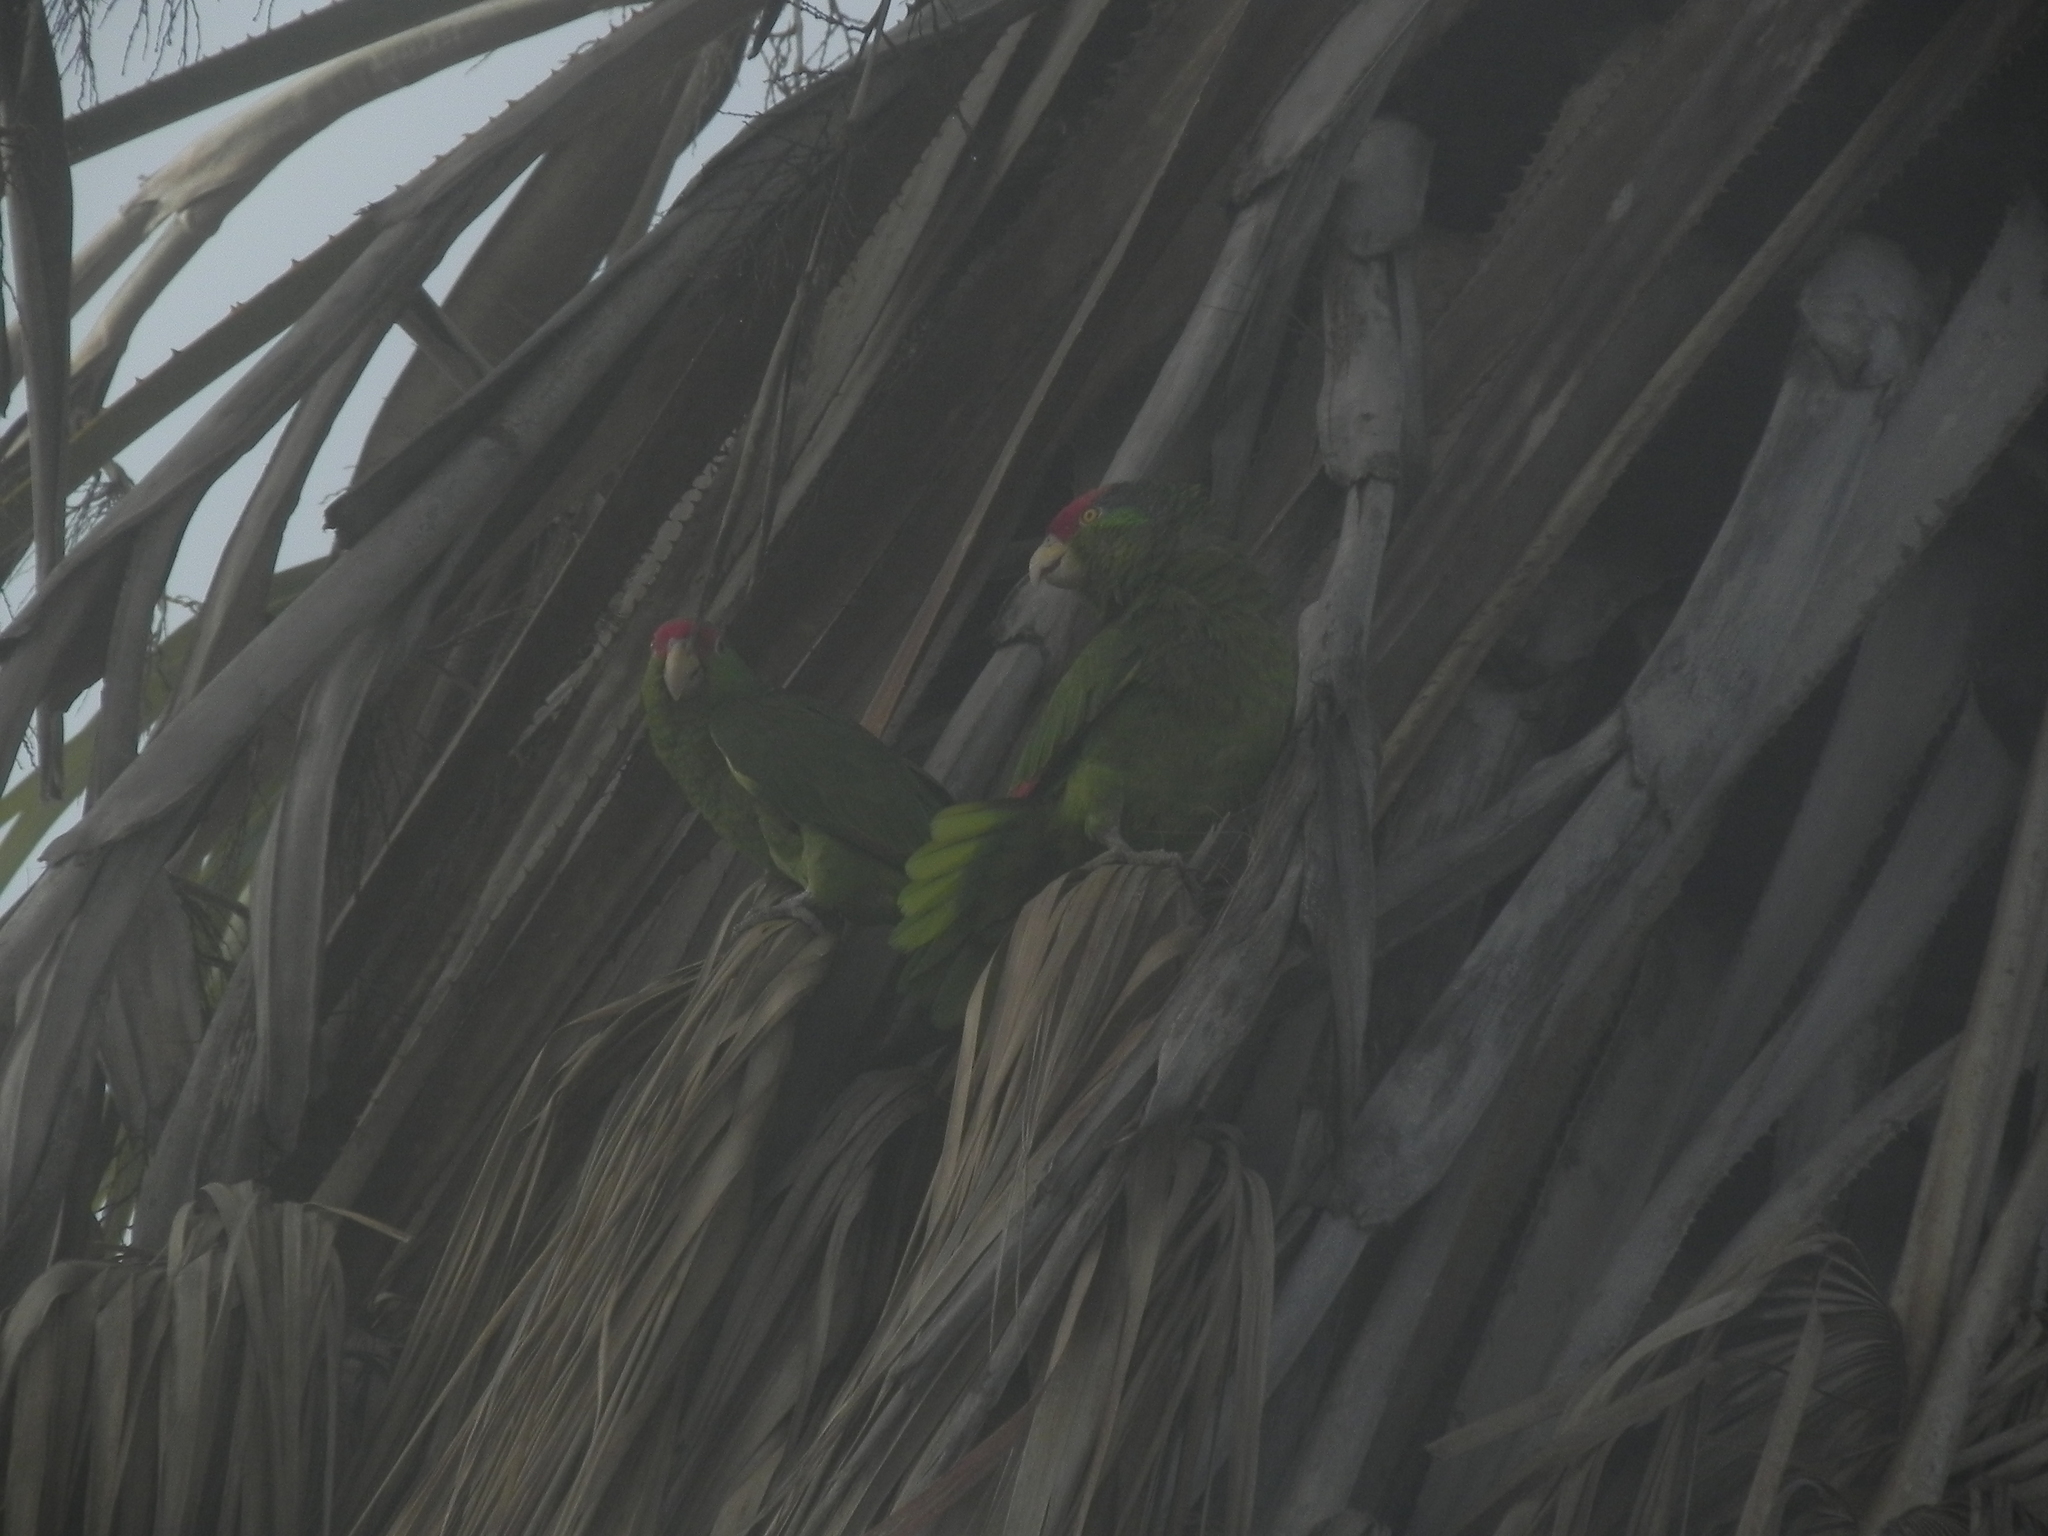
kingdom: Animalia
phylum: Chordata
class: Aves
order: Psittaciformes
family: Psittacidae
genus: Amazona
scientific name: Amazona viridigenalis
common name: Red-crowned amazon
